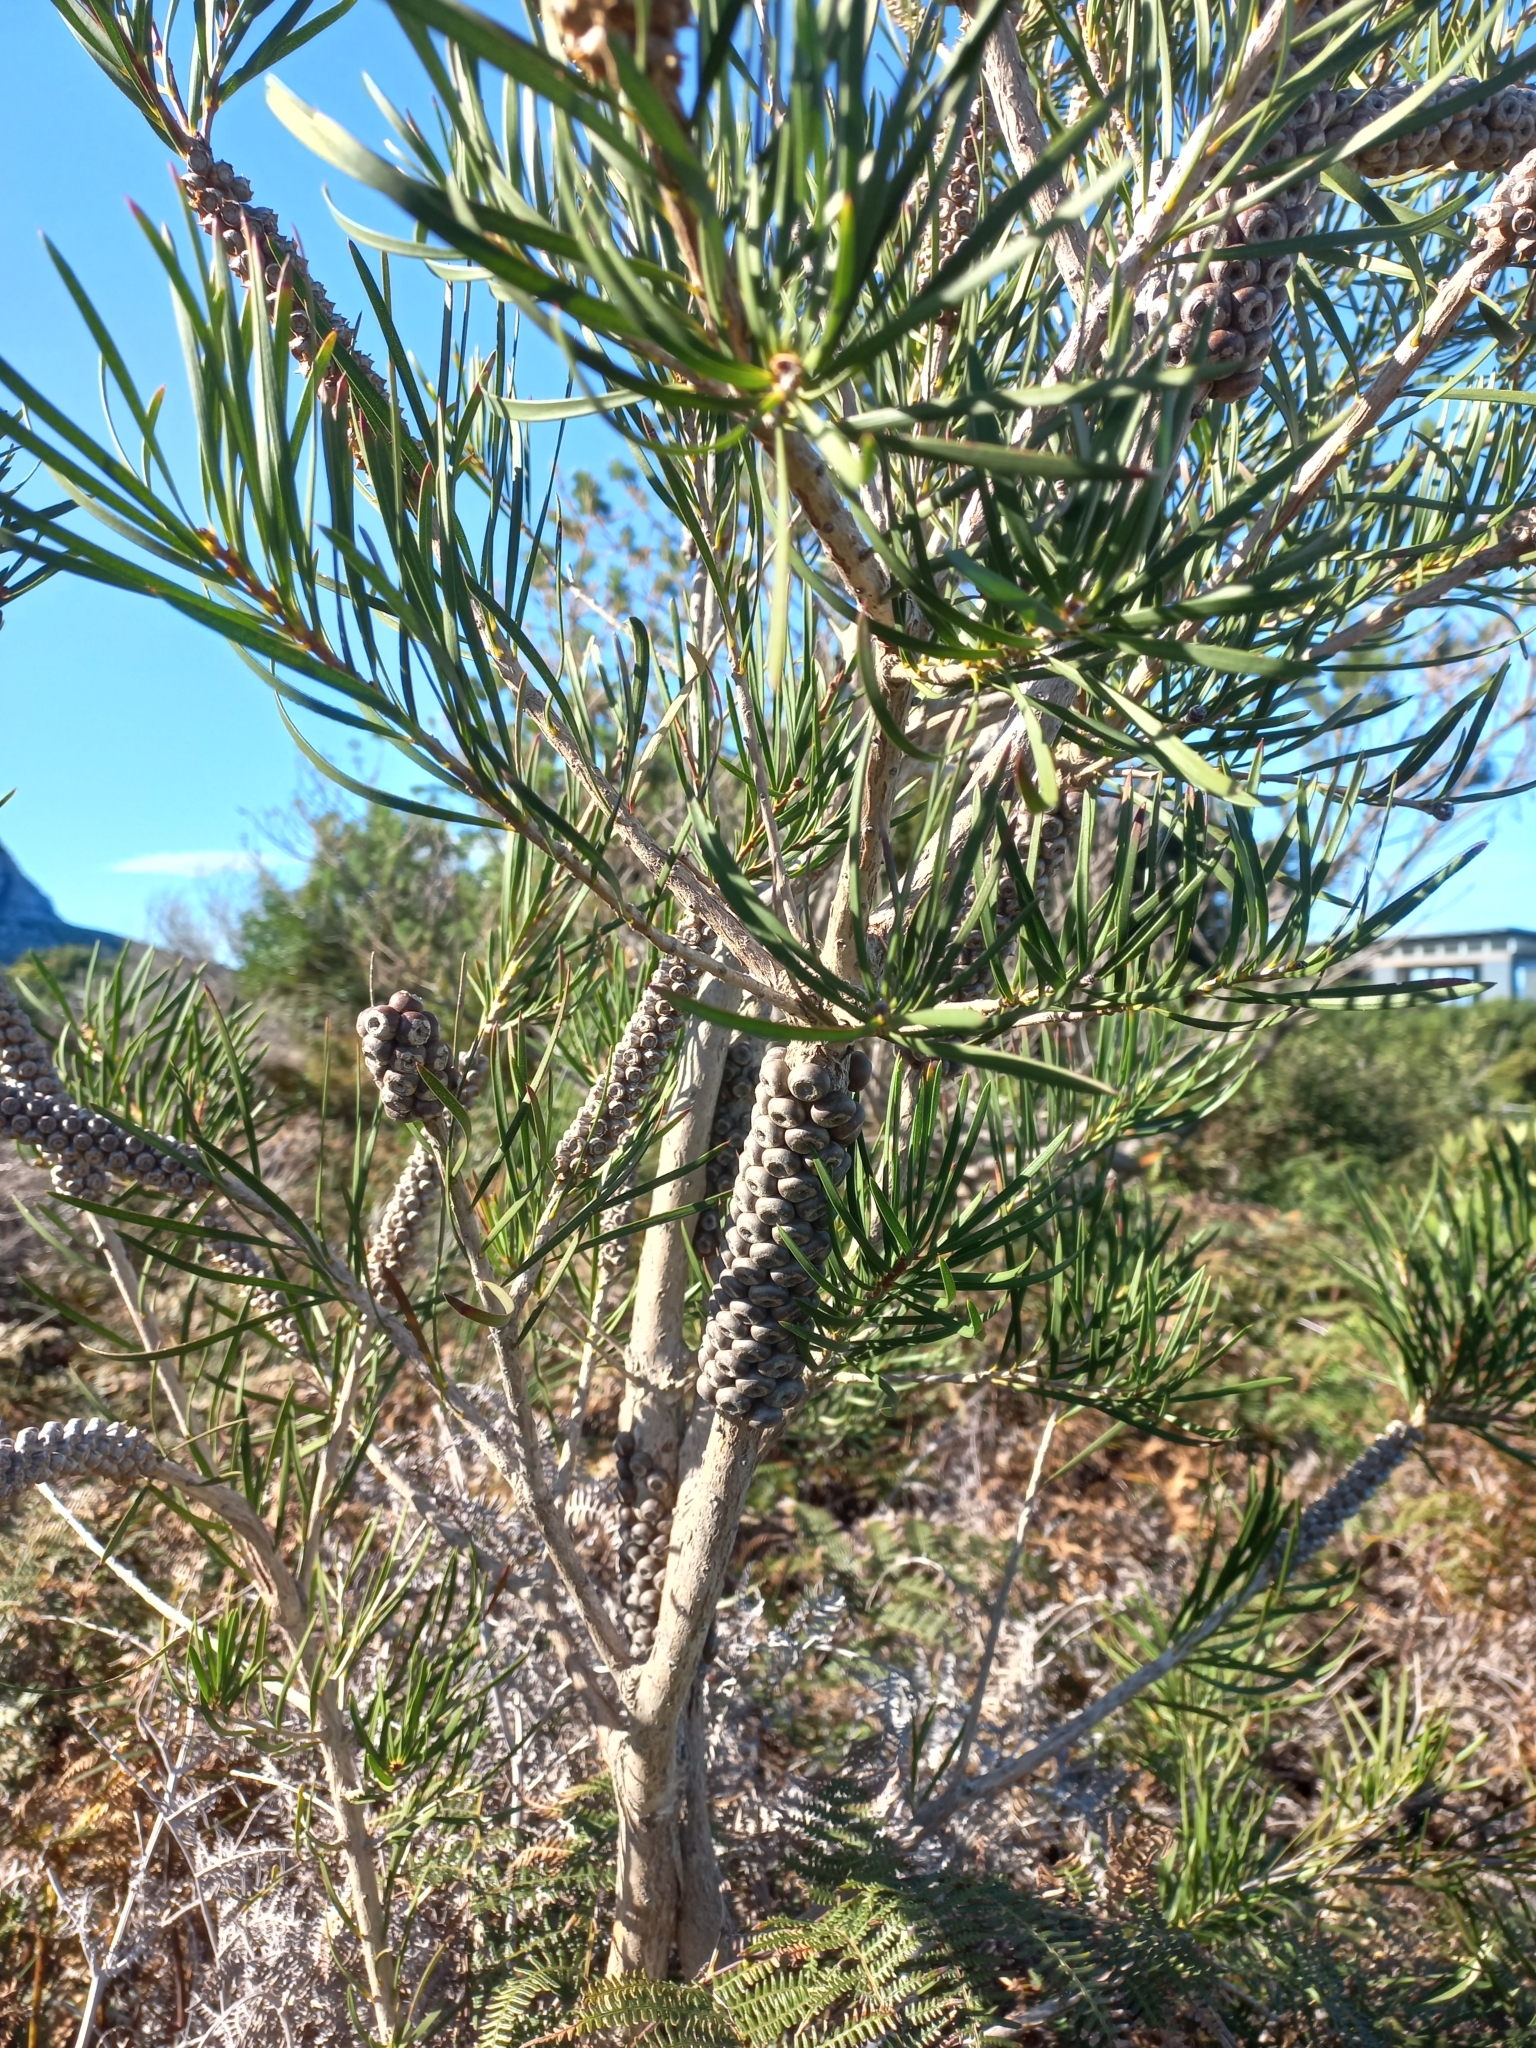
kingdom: Plantae
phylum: Tracheophyta
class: Magnoliopsida
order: Myrtales
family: Myrtaceae
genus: Callistemon
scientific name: Callistemon linearis
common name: Narrow-leaf bottlebrush
